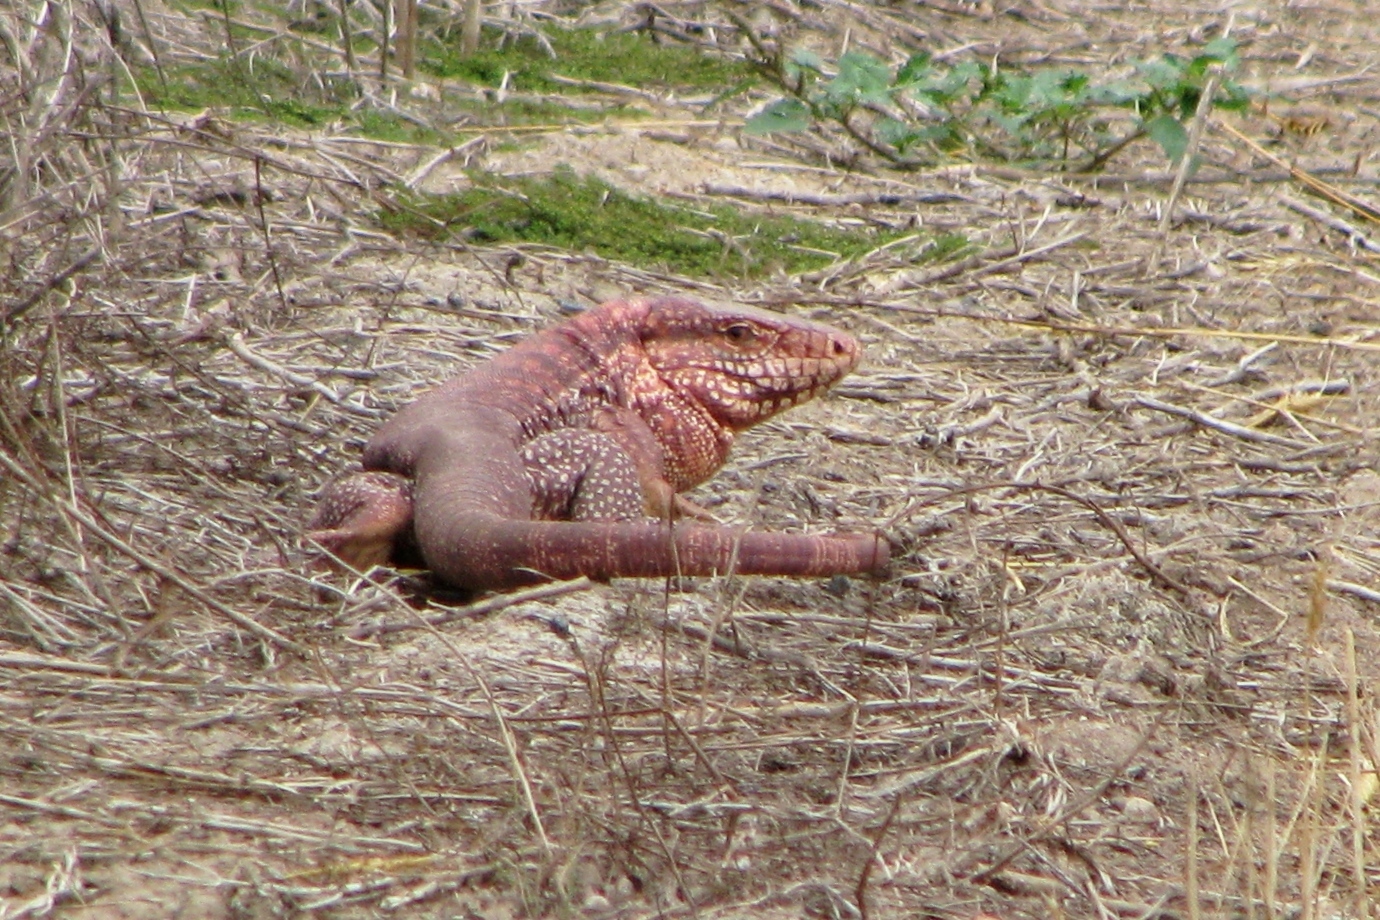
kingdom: Animalia
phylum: Chordata
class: Squamata
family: Teiidae
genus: Salvator
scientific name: Salvator rufescens
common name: Red tegu
